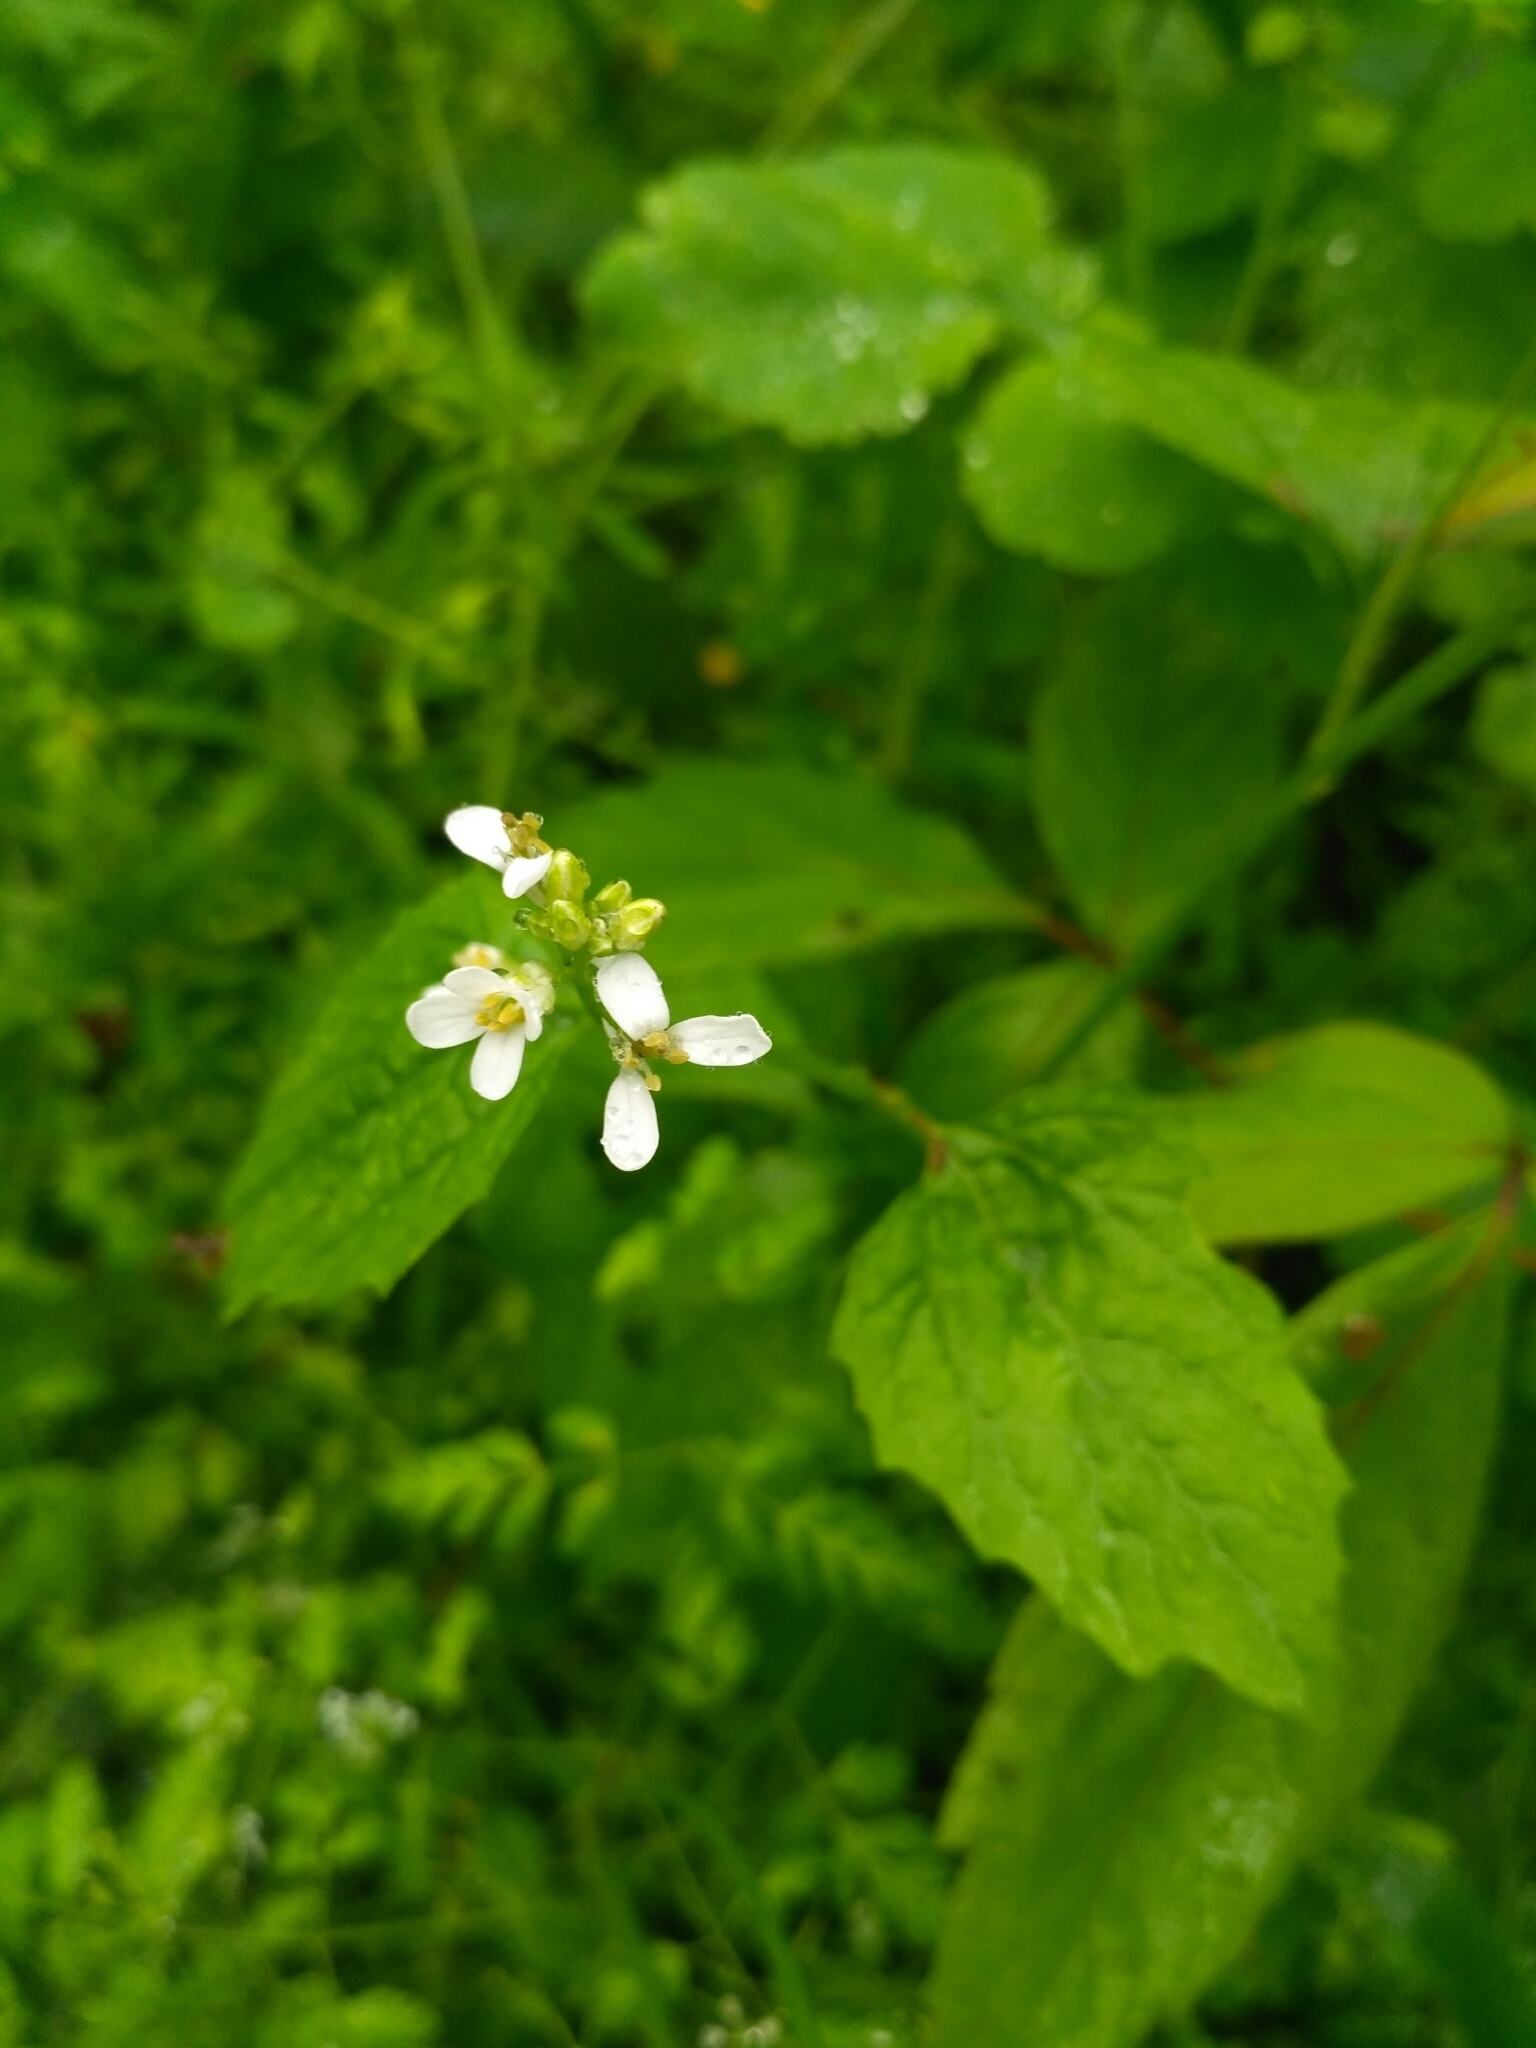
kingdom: Plantae
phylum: Tracheophyta
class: Magnoliopsida
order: Brassicales
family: Brassicaceae
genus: Alliaria
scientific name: Alliaria petiolata
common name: Garlic mustard
